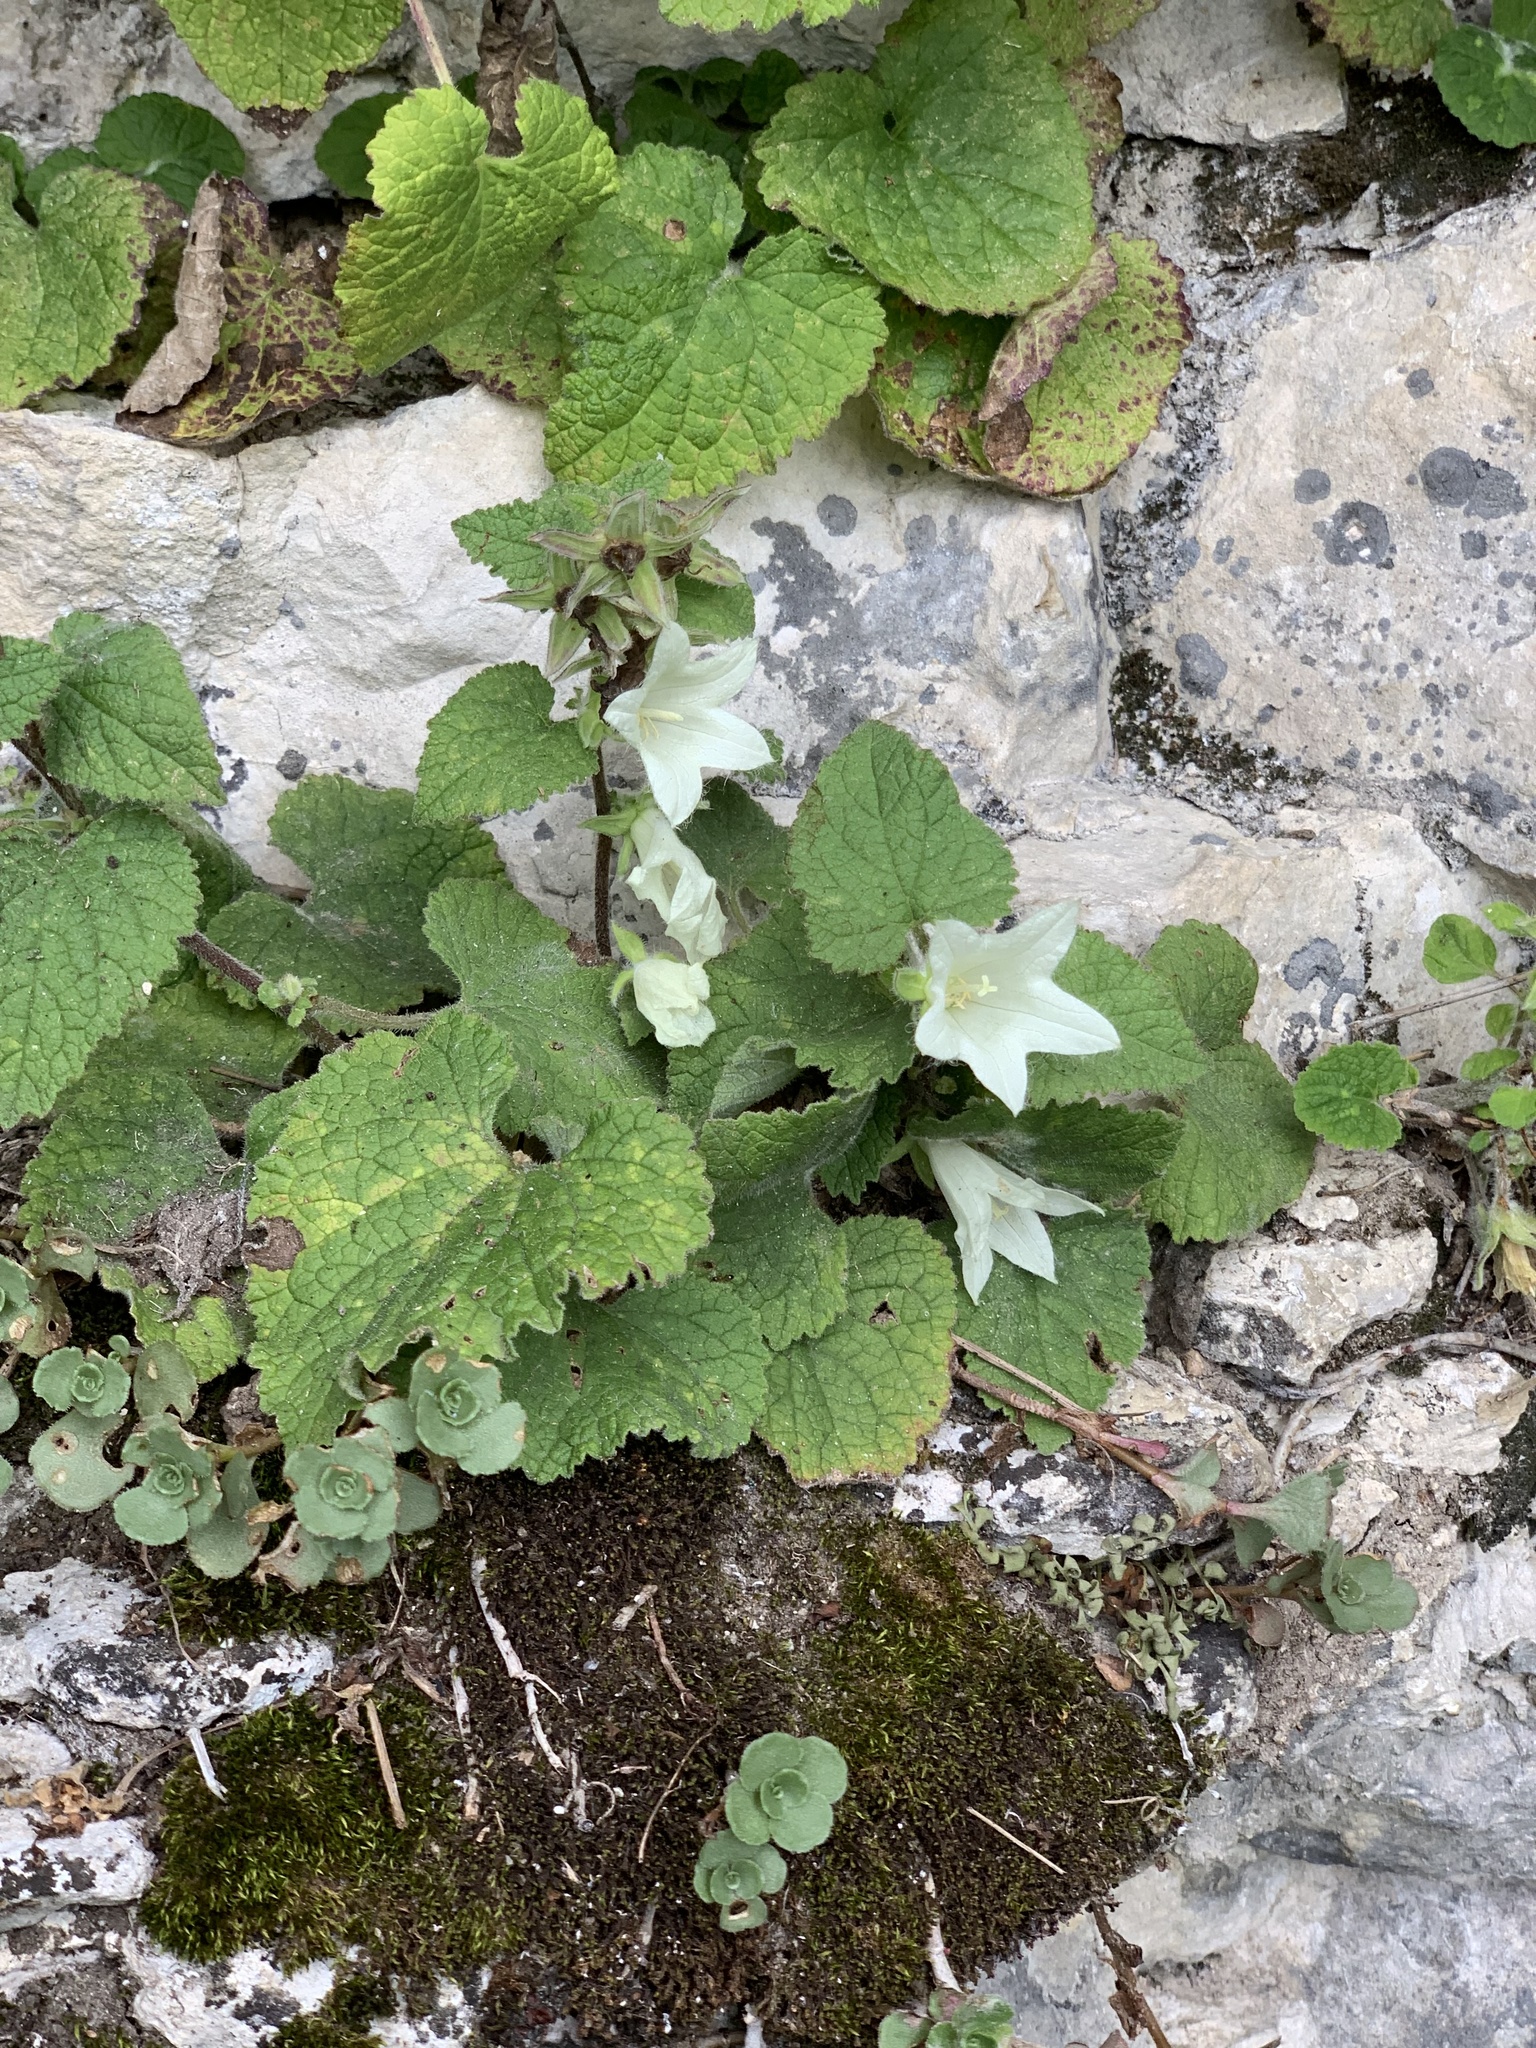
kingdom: Plantae
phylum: Tracheophyta
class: Magnoliopsida
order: Asterales
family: Campanulaceae
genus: Campanula
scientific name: Campanula latifolia
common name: Giant bellflower
